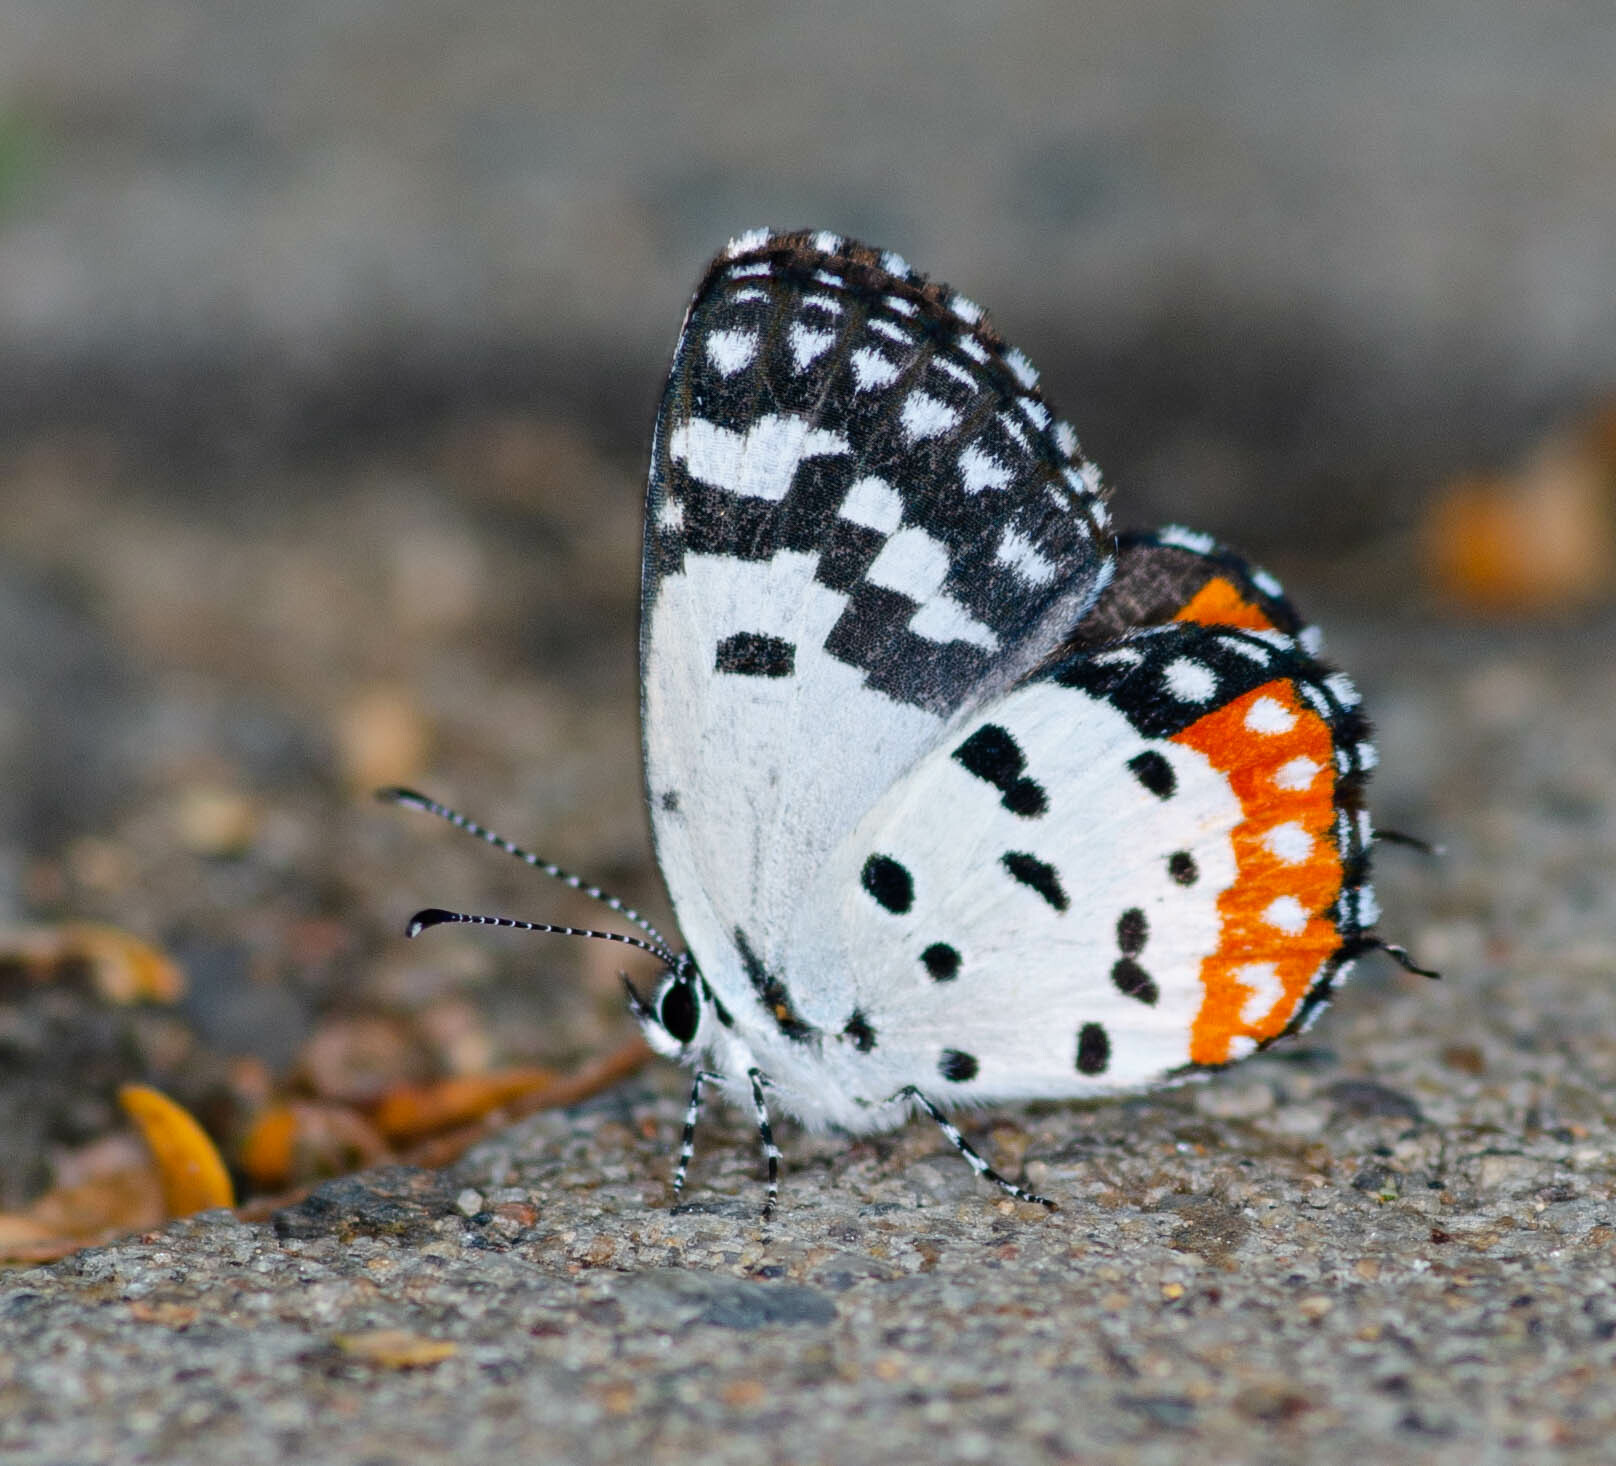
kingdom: Animalia
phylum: Arthropoda
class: Insecta
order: Lepidoptera
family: Lycaenidae
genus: Talicada
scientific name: Talicada nyseus
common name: Red pierrot
